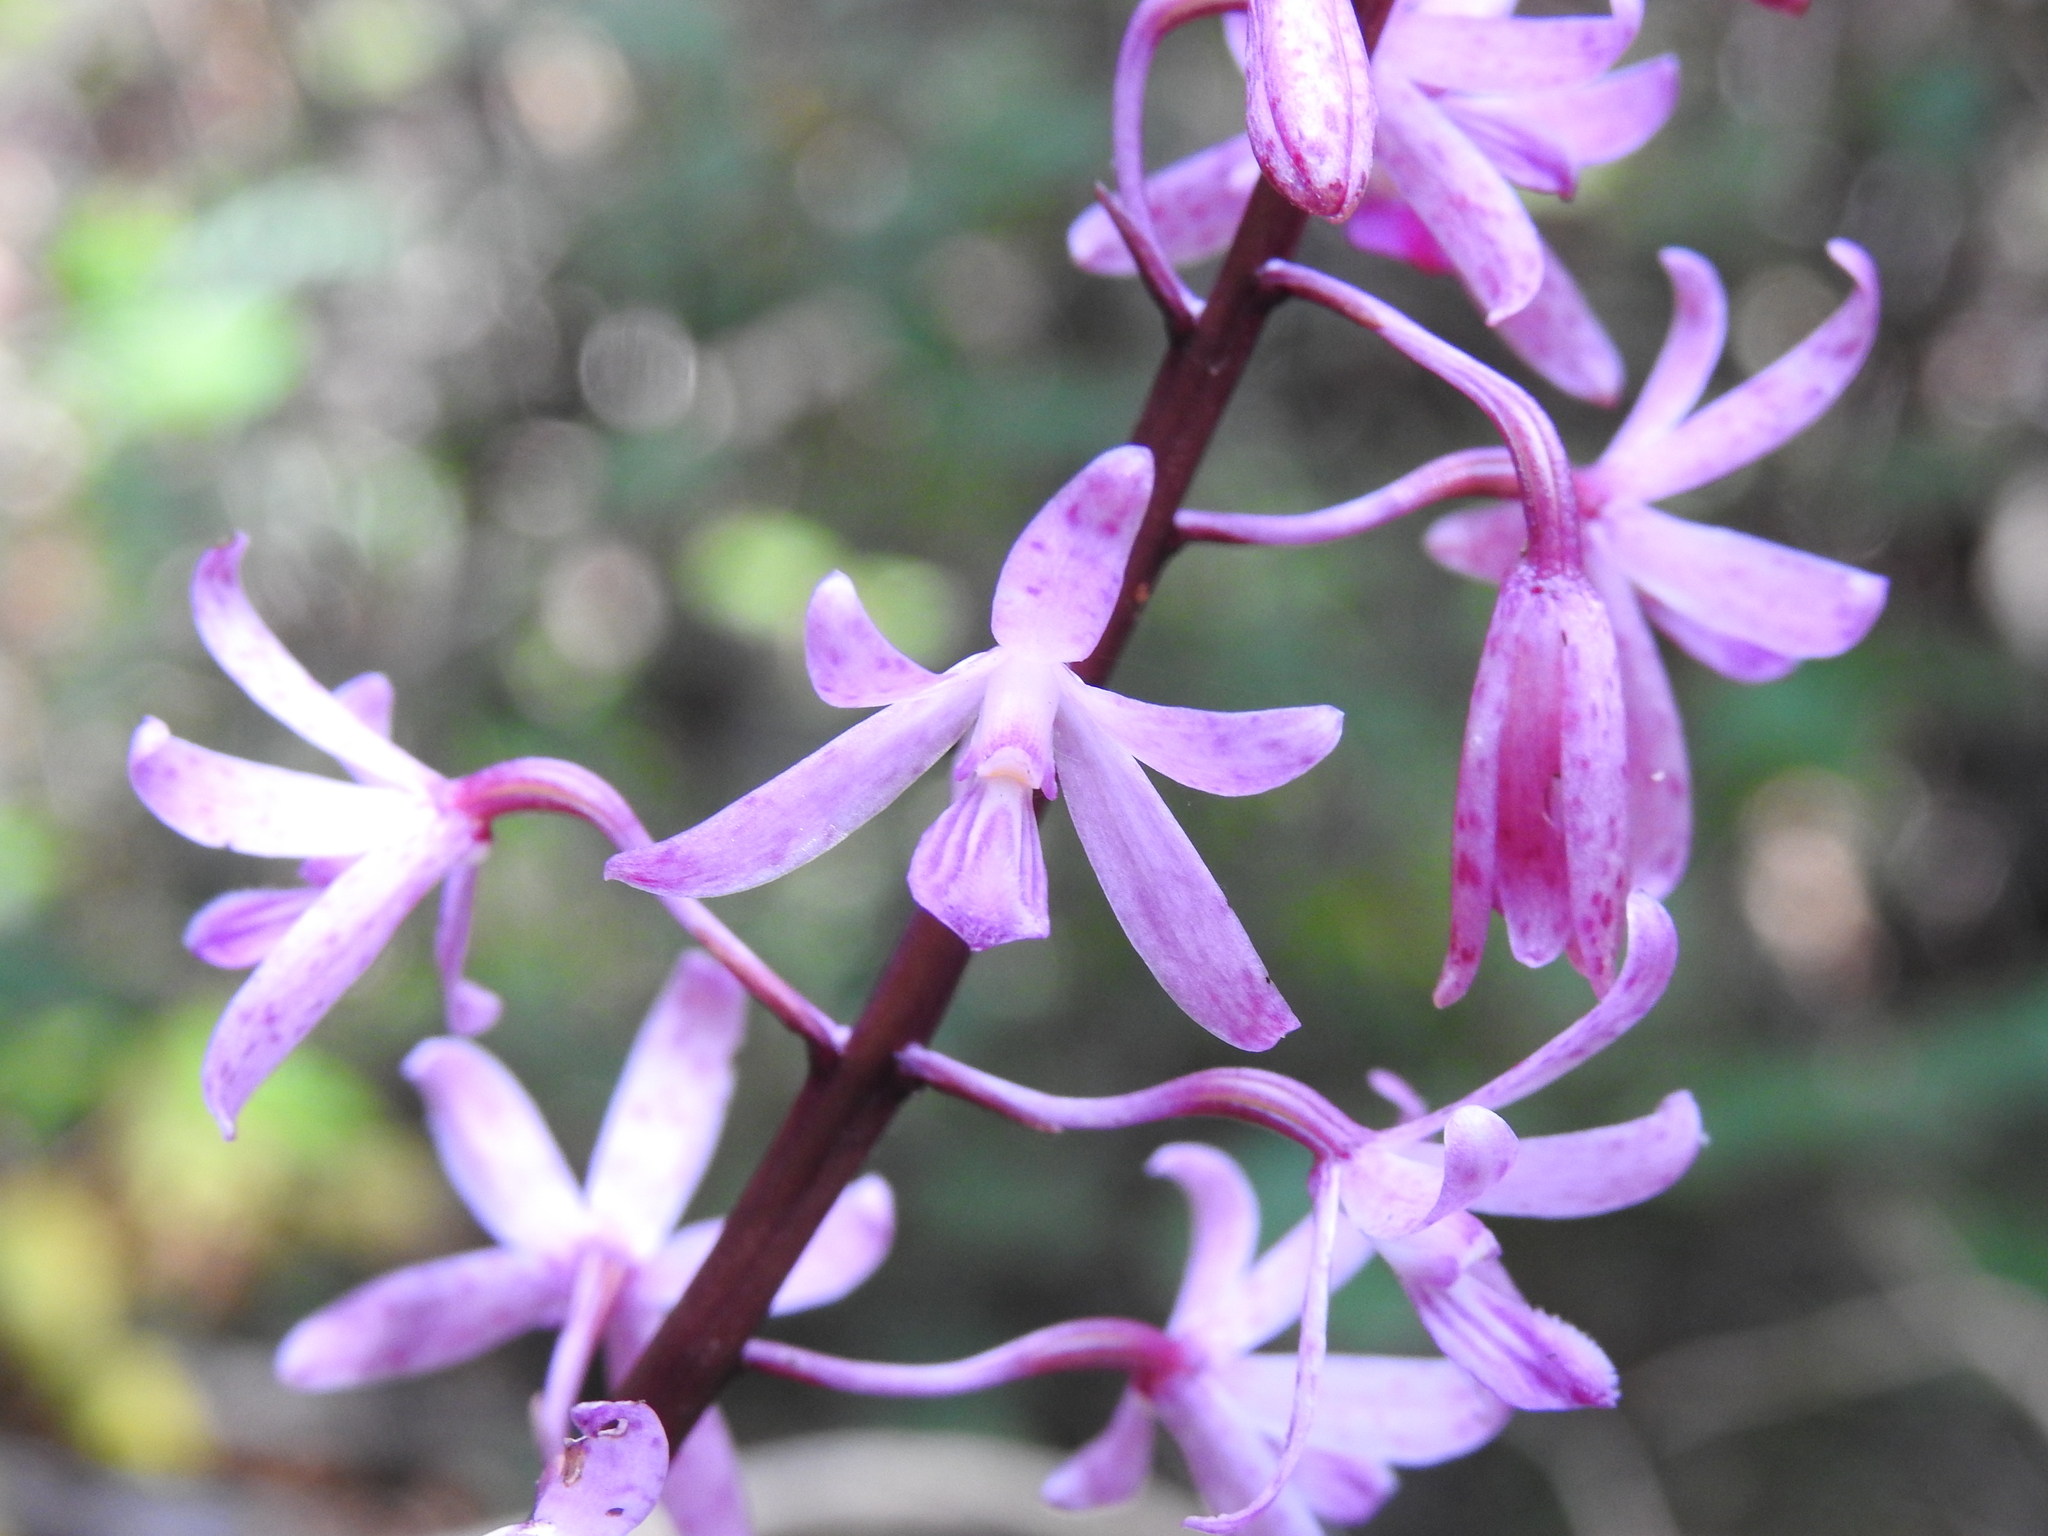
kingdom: Plantae
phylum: Tracheophyta
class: Liliopsida
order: Asparagales
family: Orchidaceae
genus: Dipodium
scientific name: Dipodium roseum
